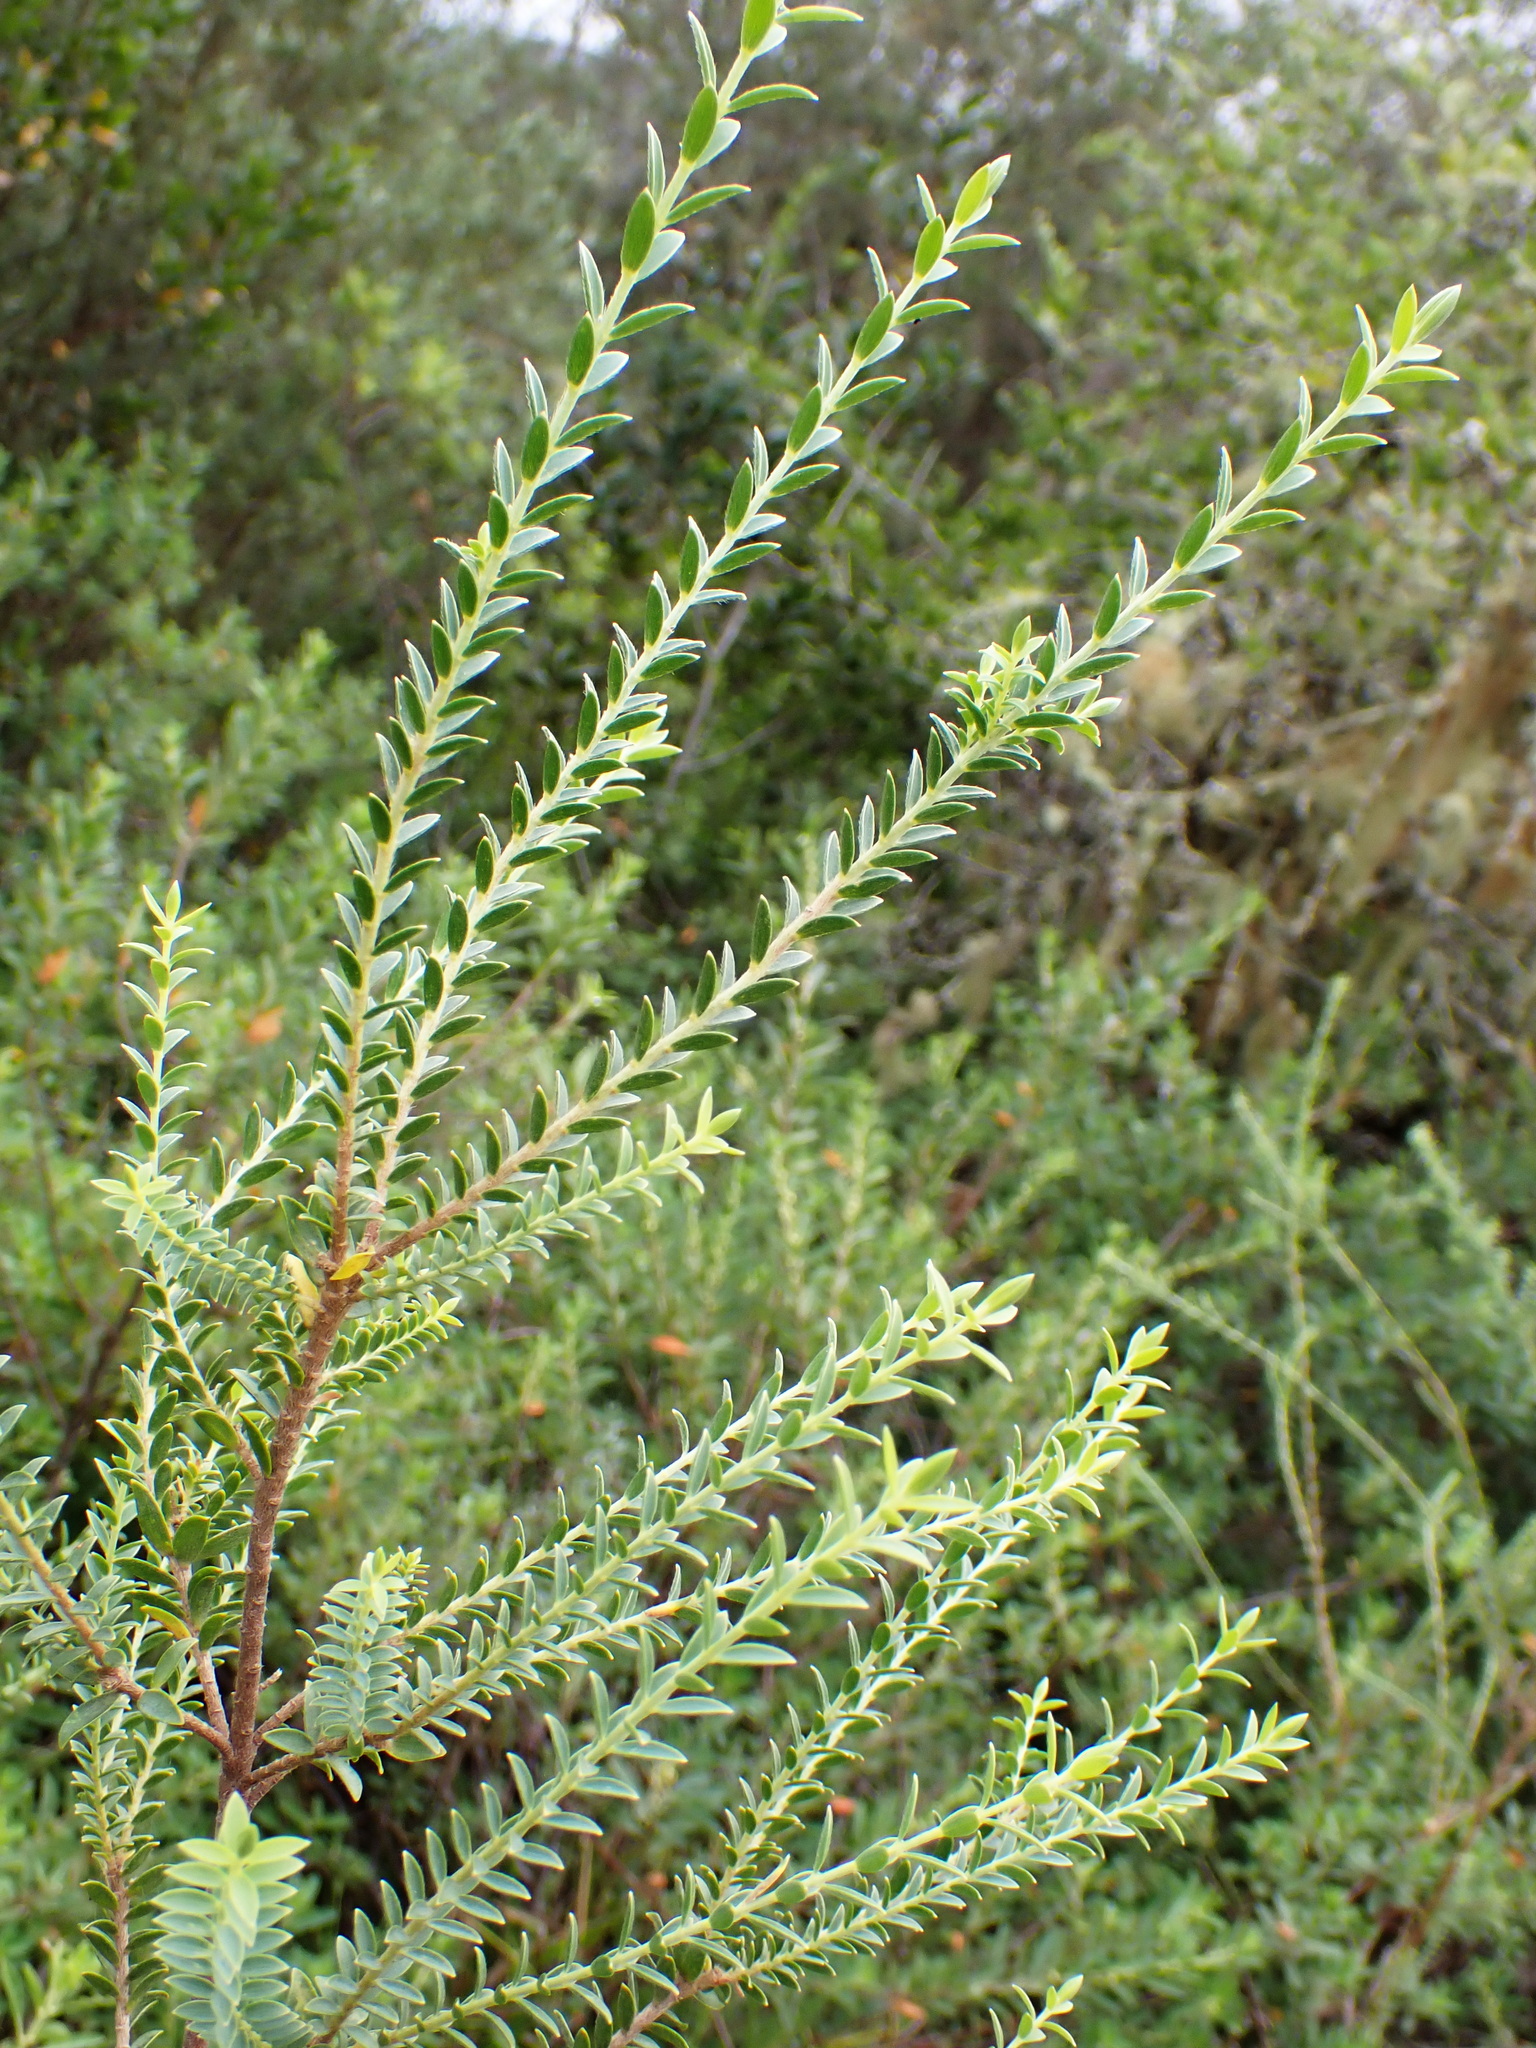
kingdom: Plantae
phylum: Tracheophyta
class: Magnoliopsida
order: Malvales
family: Thymelaeaceae
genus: Gnidia
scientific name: Gnidia caniflora
